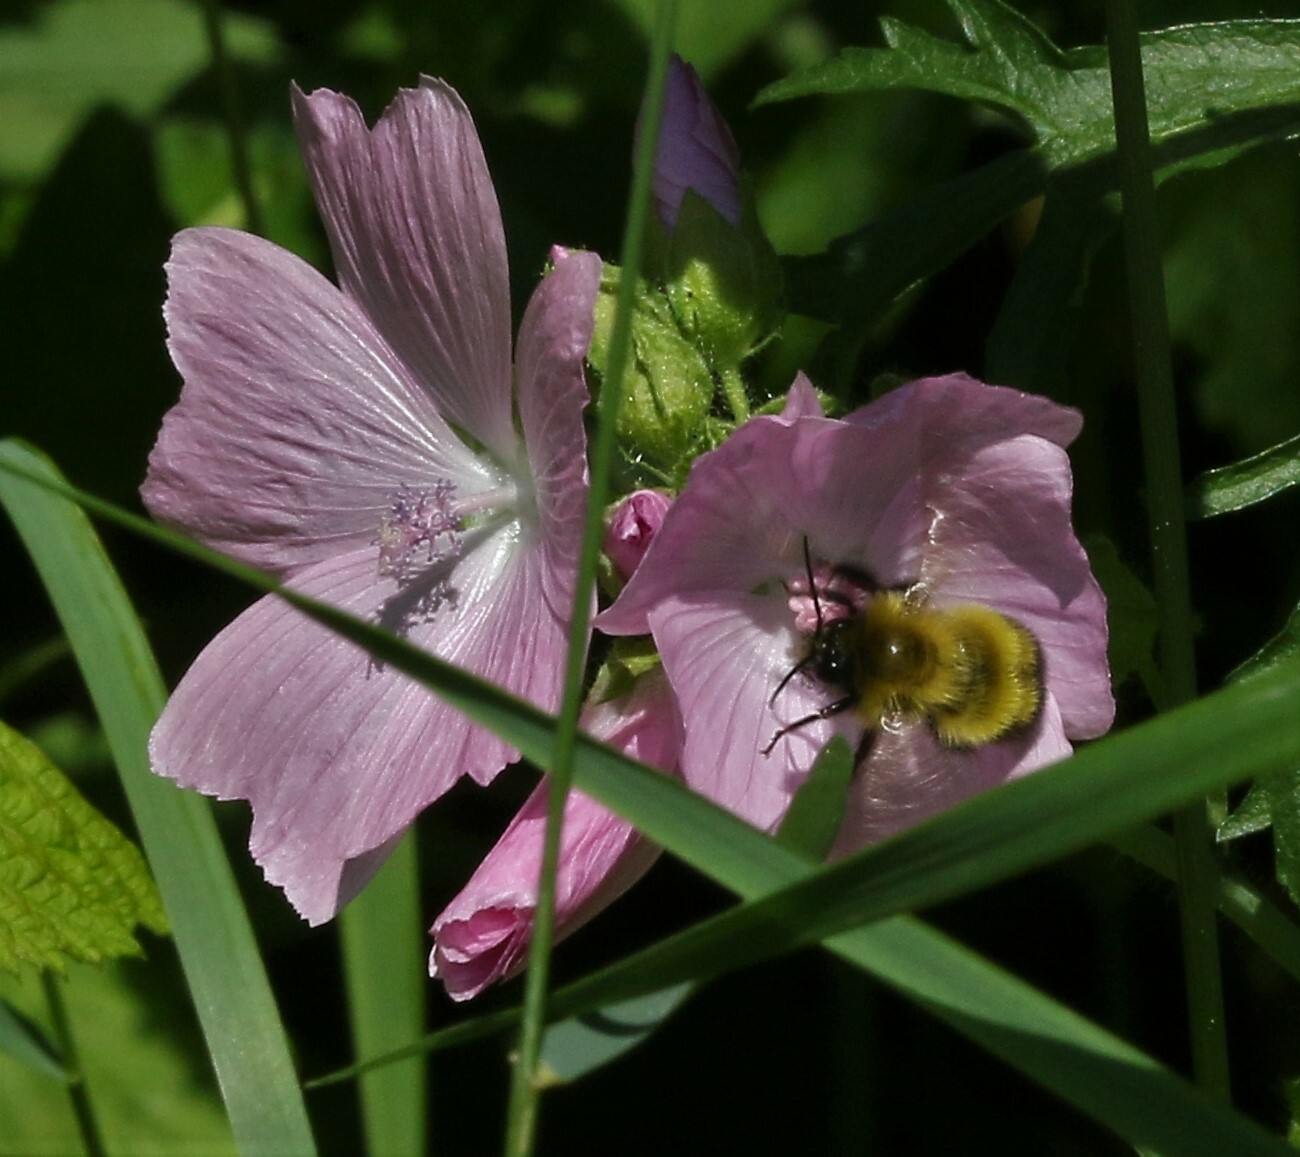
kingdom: Animalia
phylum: Arthropoda
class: Insecta
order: Hymenoptera
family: Apidae
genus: Bombus
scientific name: Bombus perplexus
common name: Confusing bumble bee
